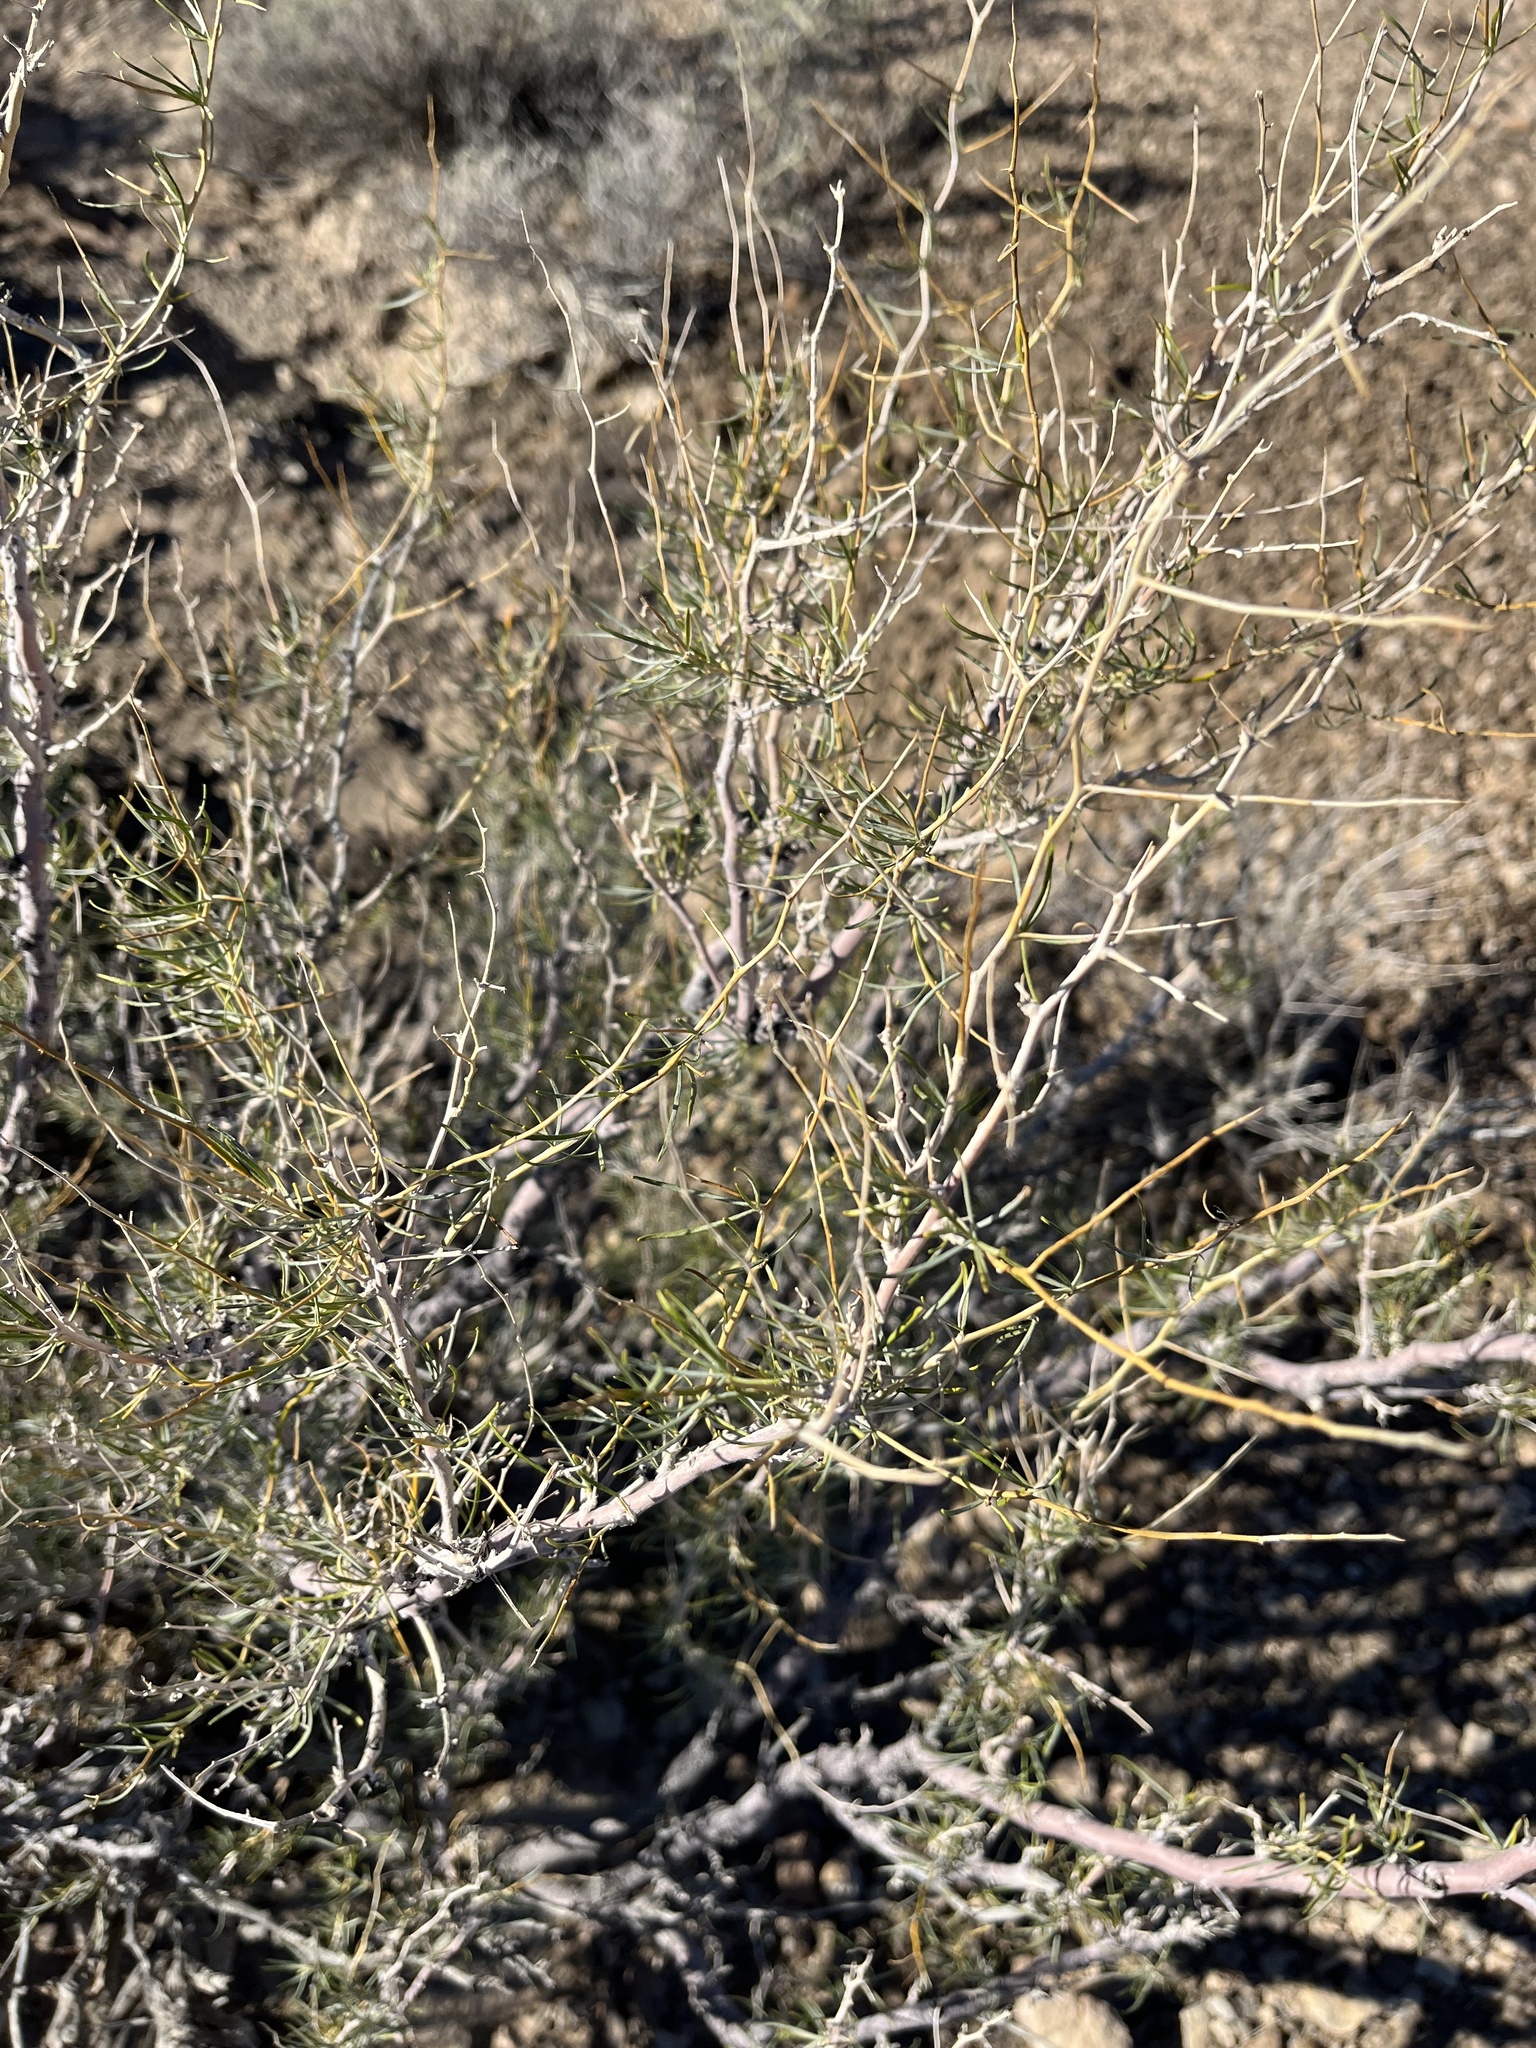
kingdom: Plantae
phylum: Tracheophyta
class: Magnoliopsida
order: Fabales
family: Fabaceae
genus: Psorothamnus
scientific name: Psorothamnus schottii
